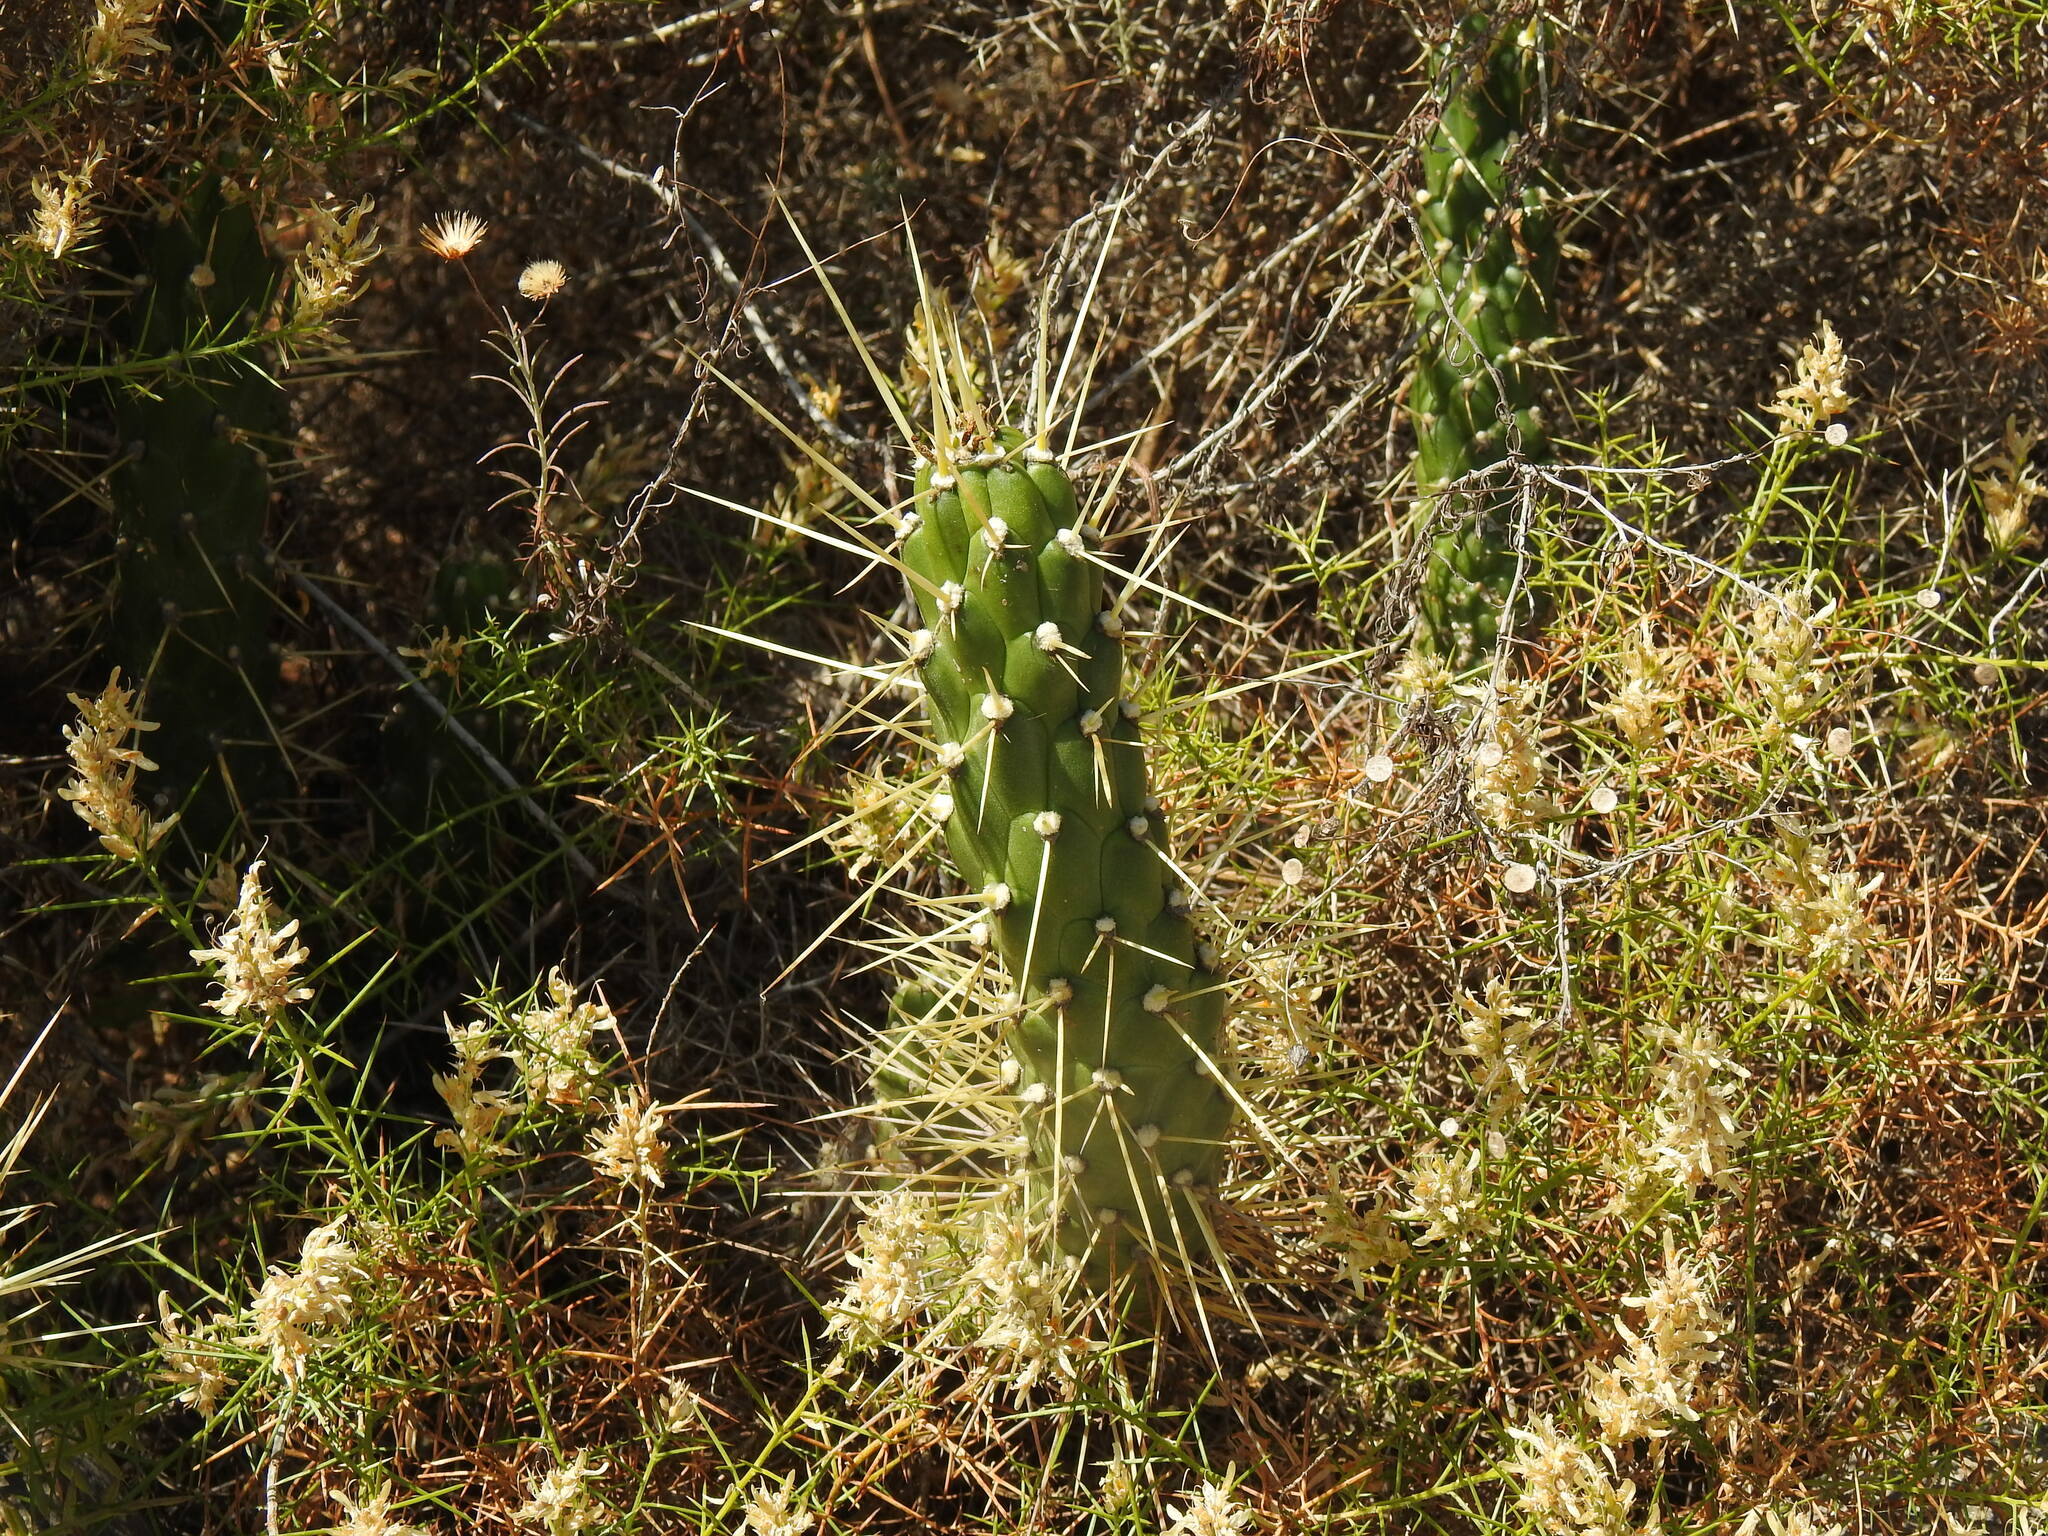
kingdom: Plantae
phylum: Tracheophyta
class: Magnoliopsida
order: Caryophyllales
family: Cactaceae
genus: Austrocylindropuntia
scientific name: Austrocylindropuntia subulata
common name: Eve's needle cactus
